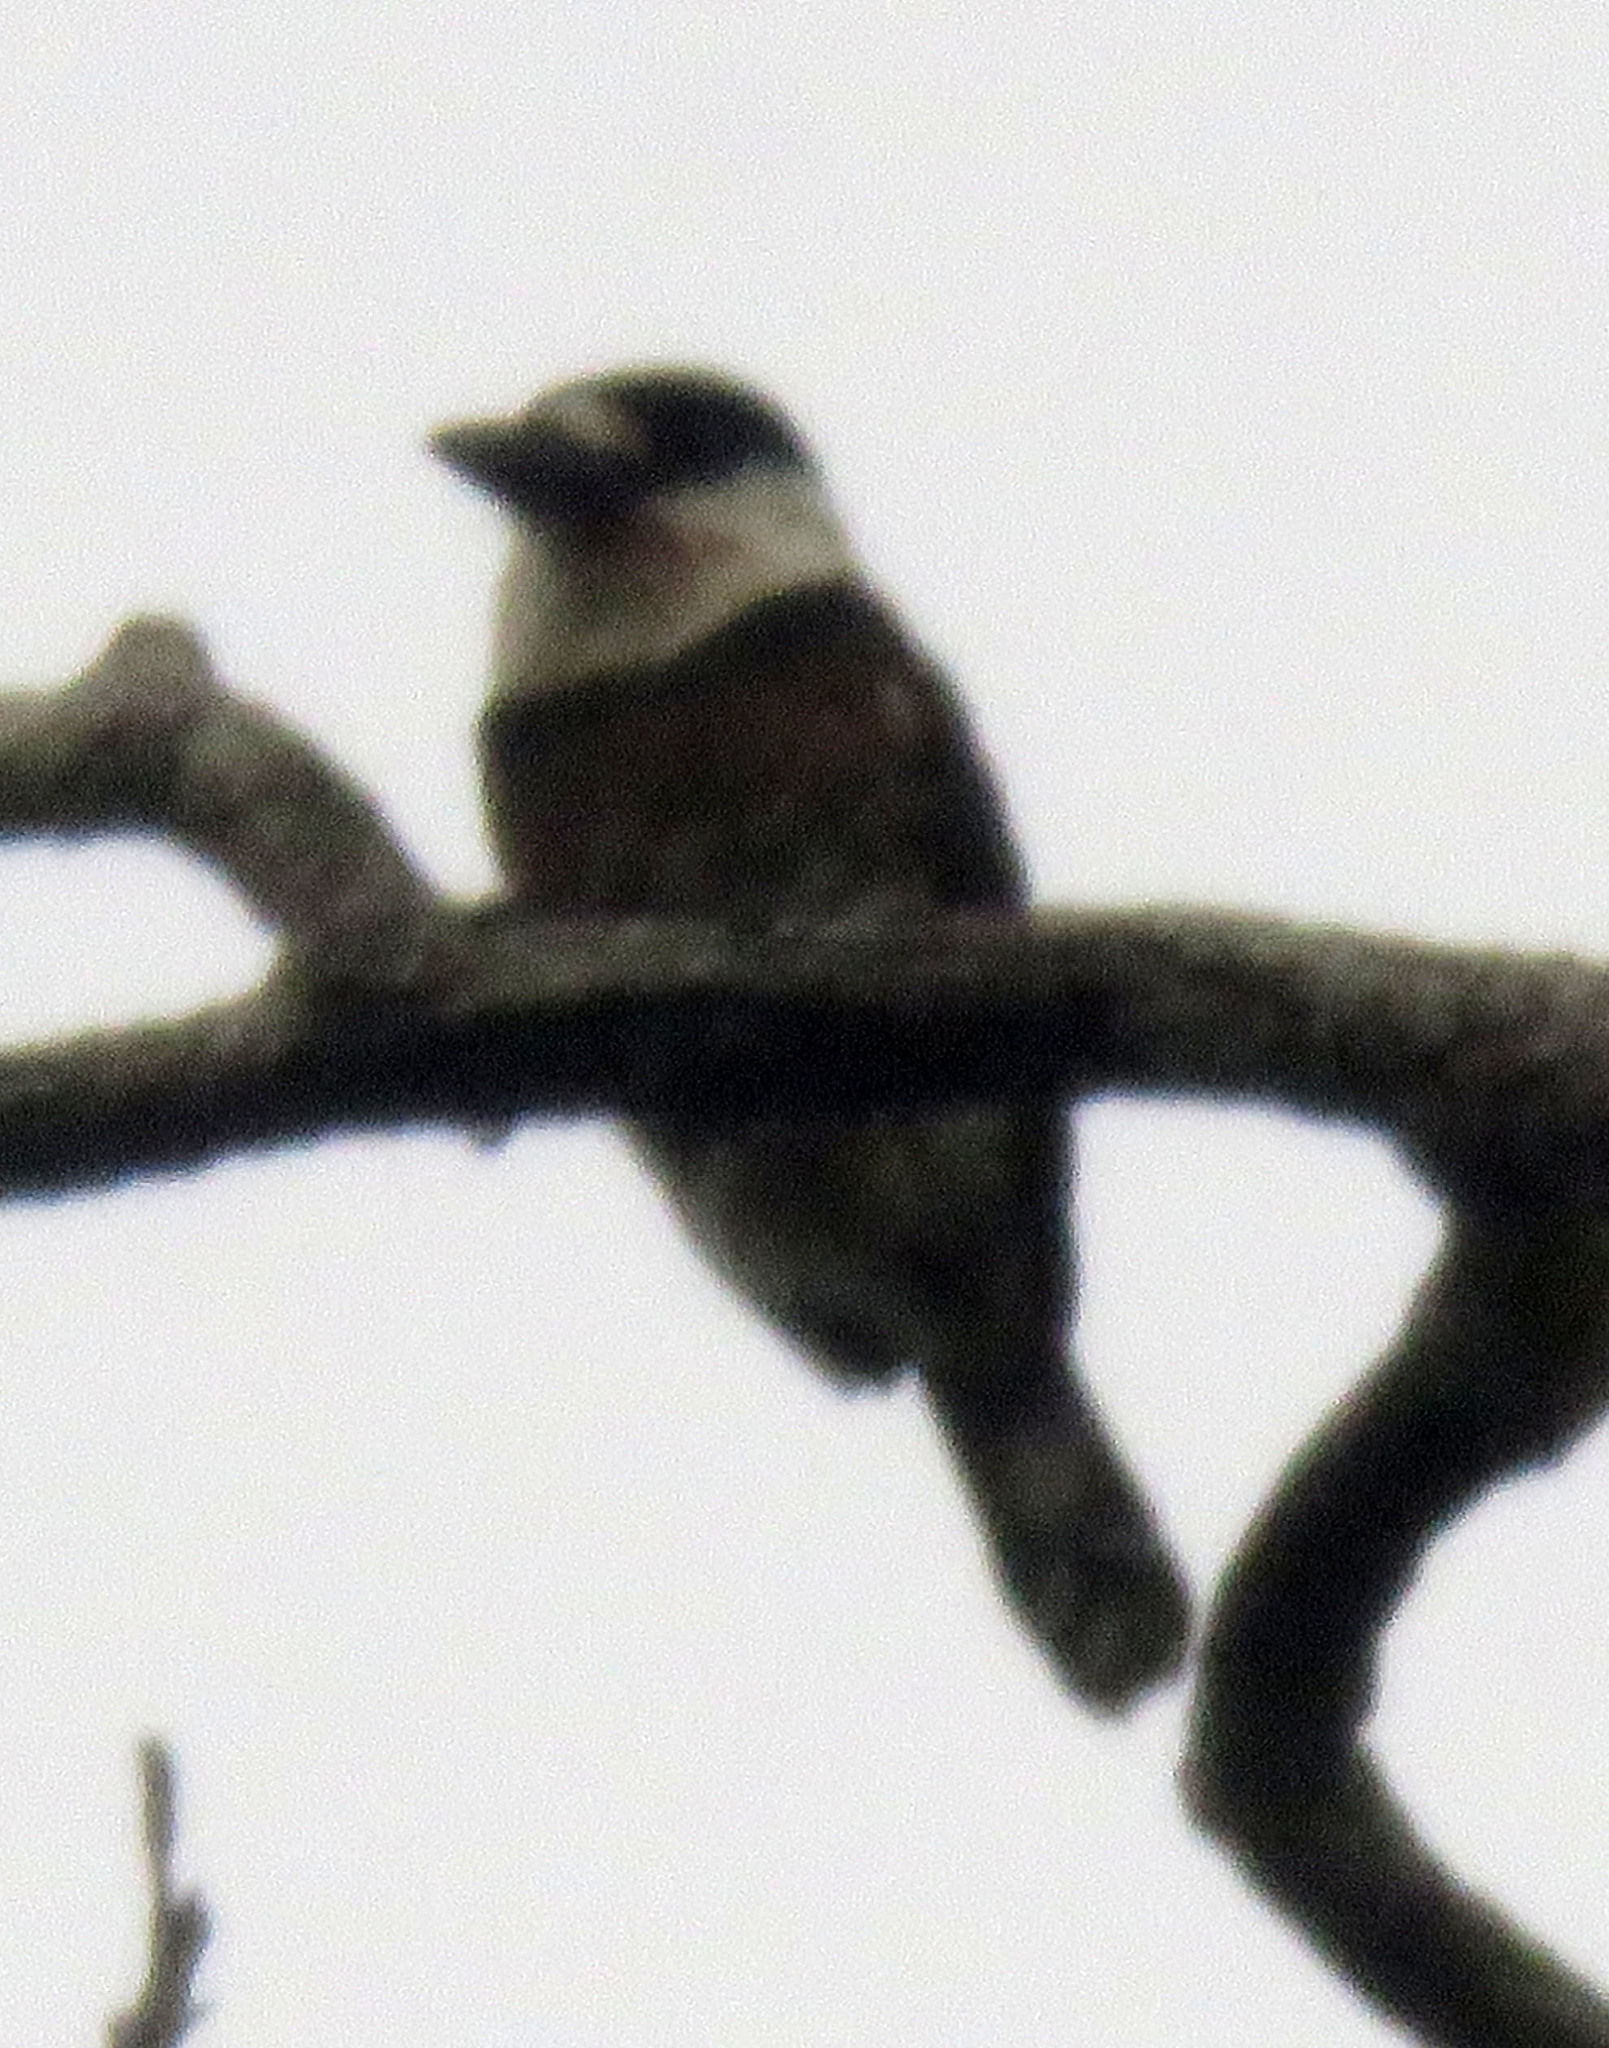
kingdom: Animalia
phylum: Chordata
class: Aves
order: Piciformes
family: Bucconidae
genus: Notharchus
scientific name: Notharchus ordii
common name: Brown-banded puffbird
